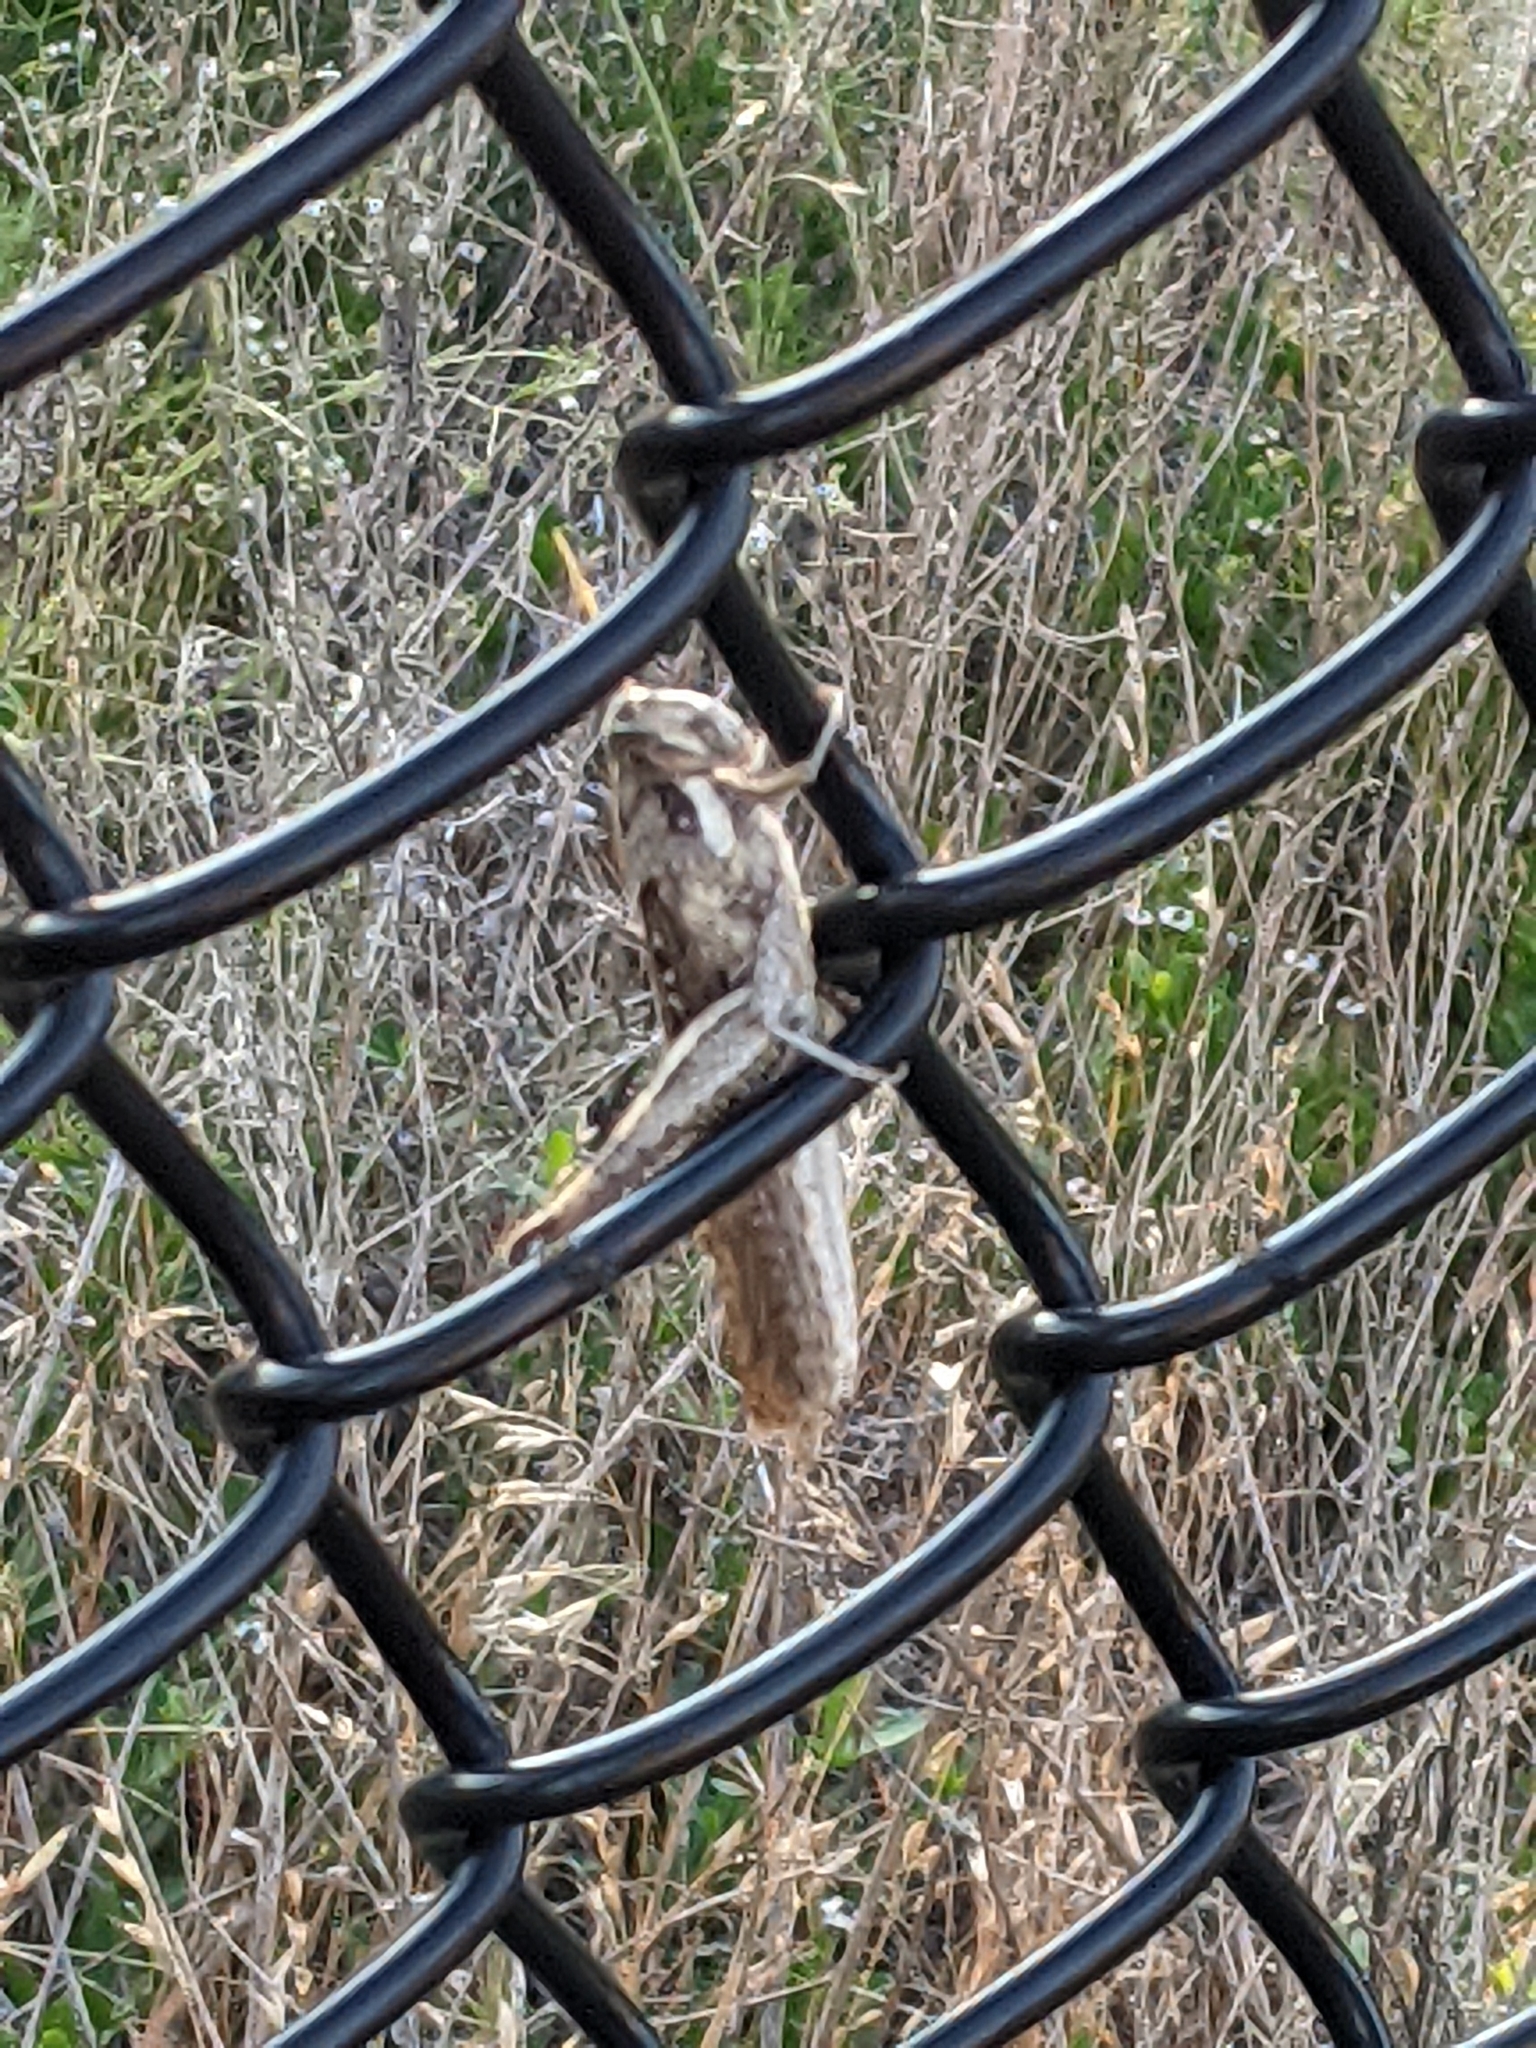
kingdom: Animalia
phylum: Arthropoda
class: Insecta
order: Orthoptera
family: Acrididae
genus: Schistocerca
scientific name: Schistocerca nitens
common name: Vagrant grasshopper
